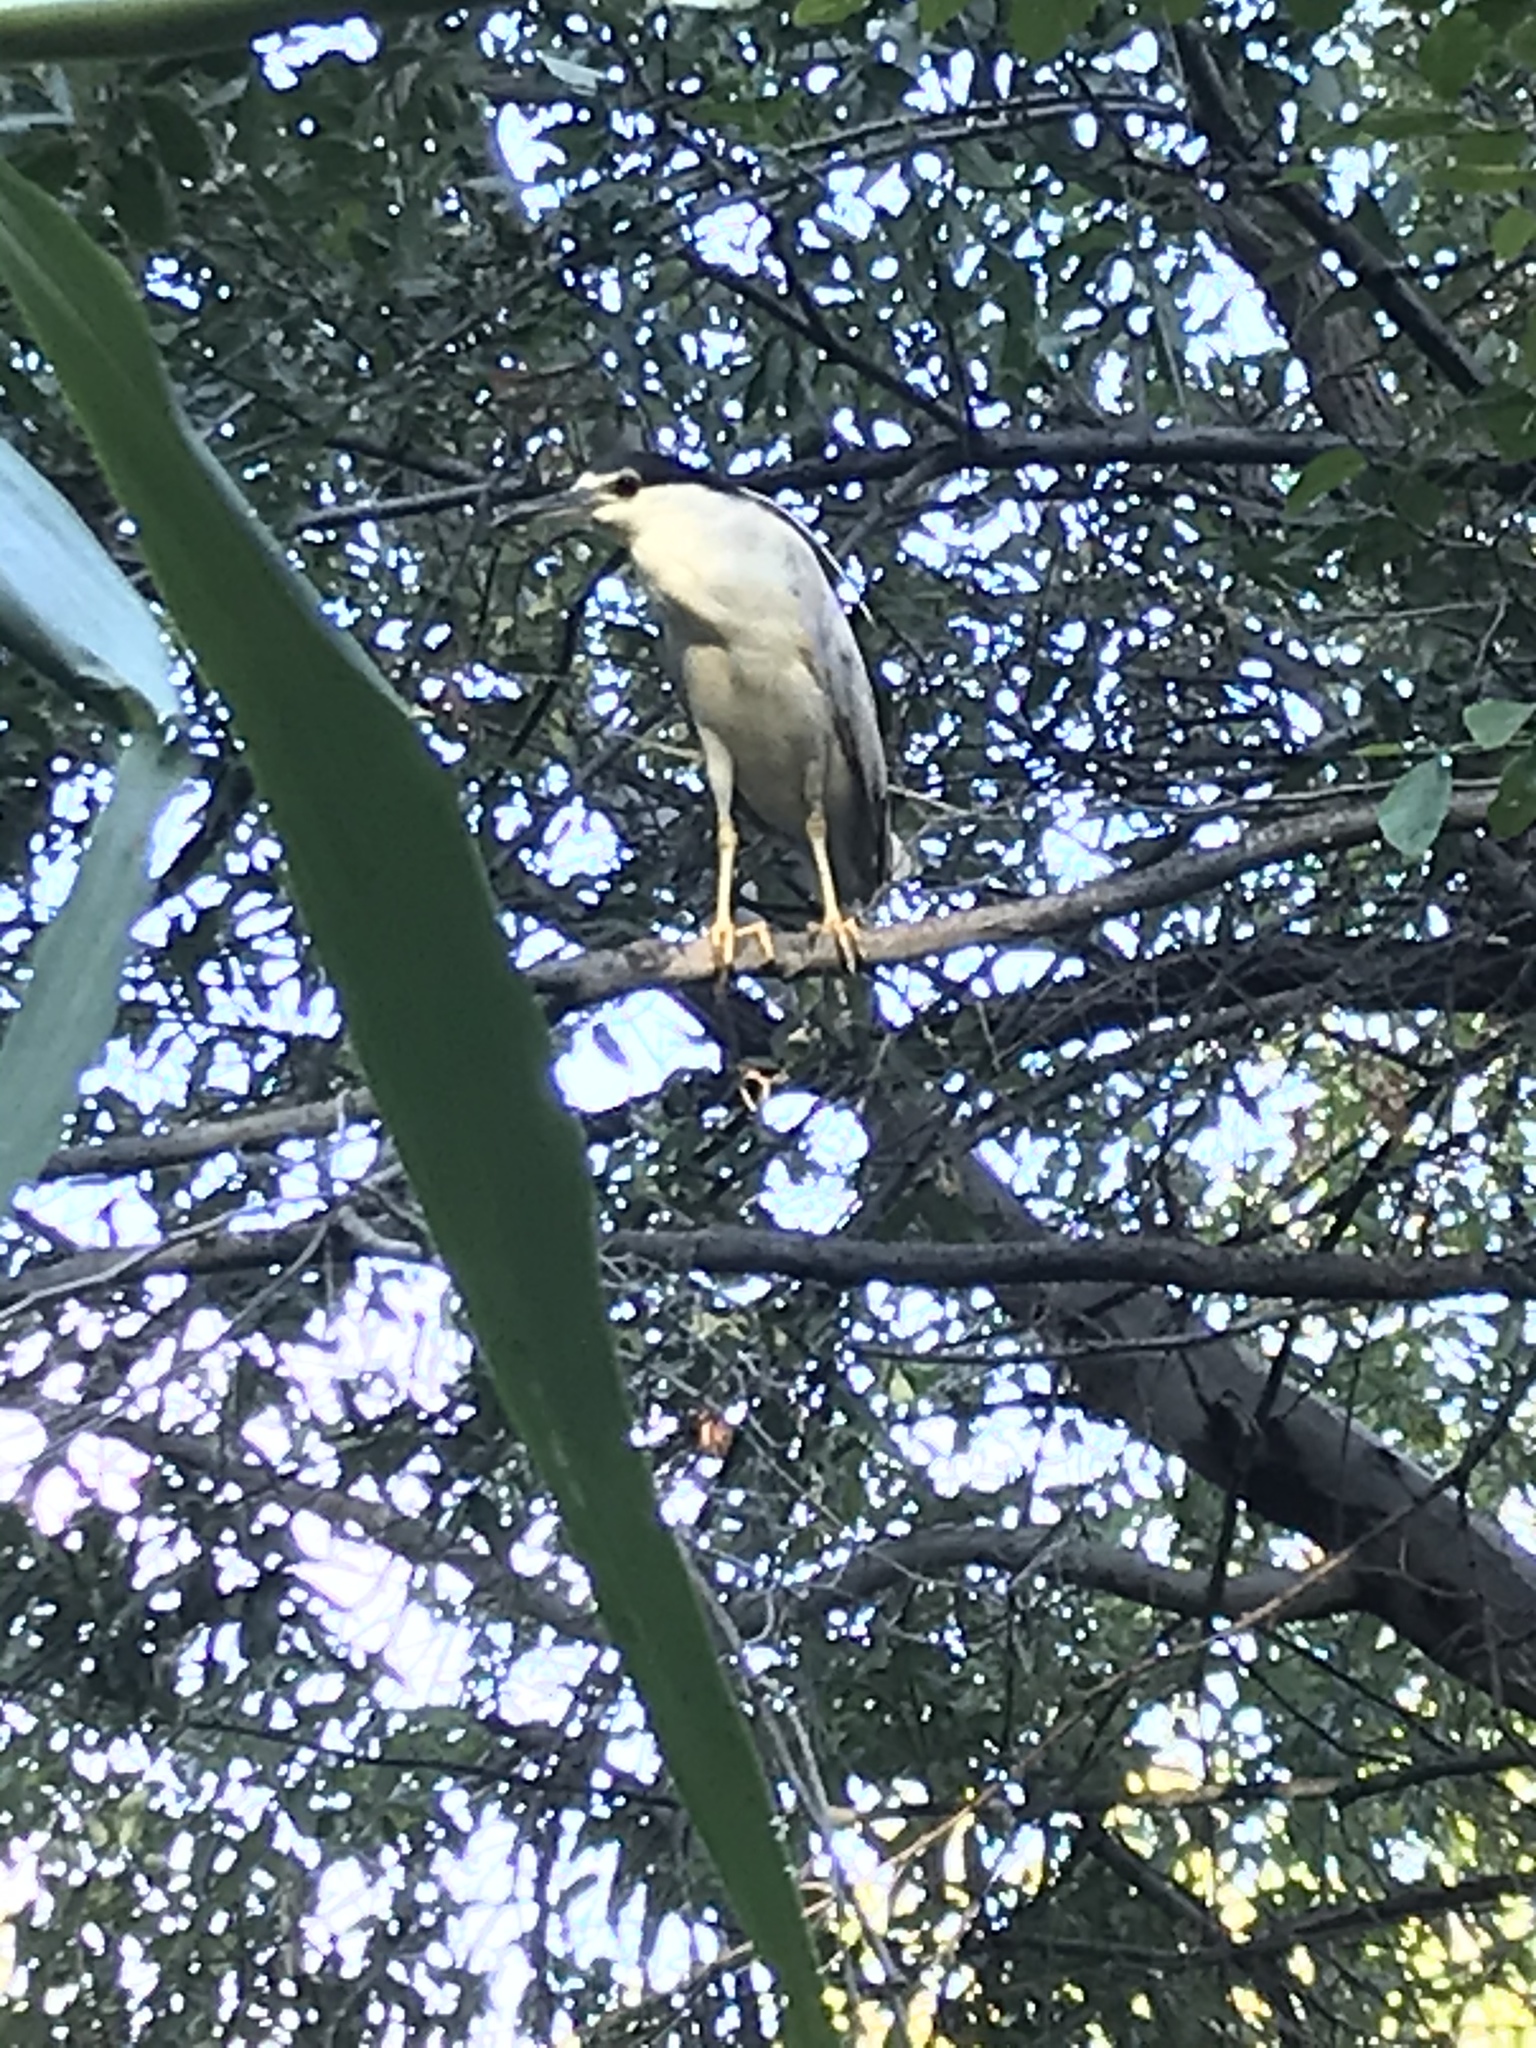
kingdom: Animalia
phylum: Chordata
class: Aves
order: Pelecaniformes
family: Ardeidae
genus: Nycticorax
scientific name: Nycticorax nycticorax
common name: Black-crowned night heron
